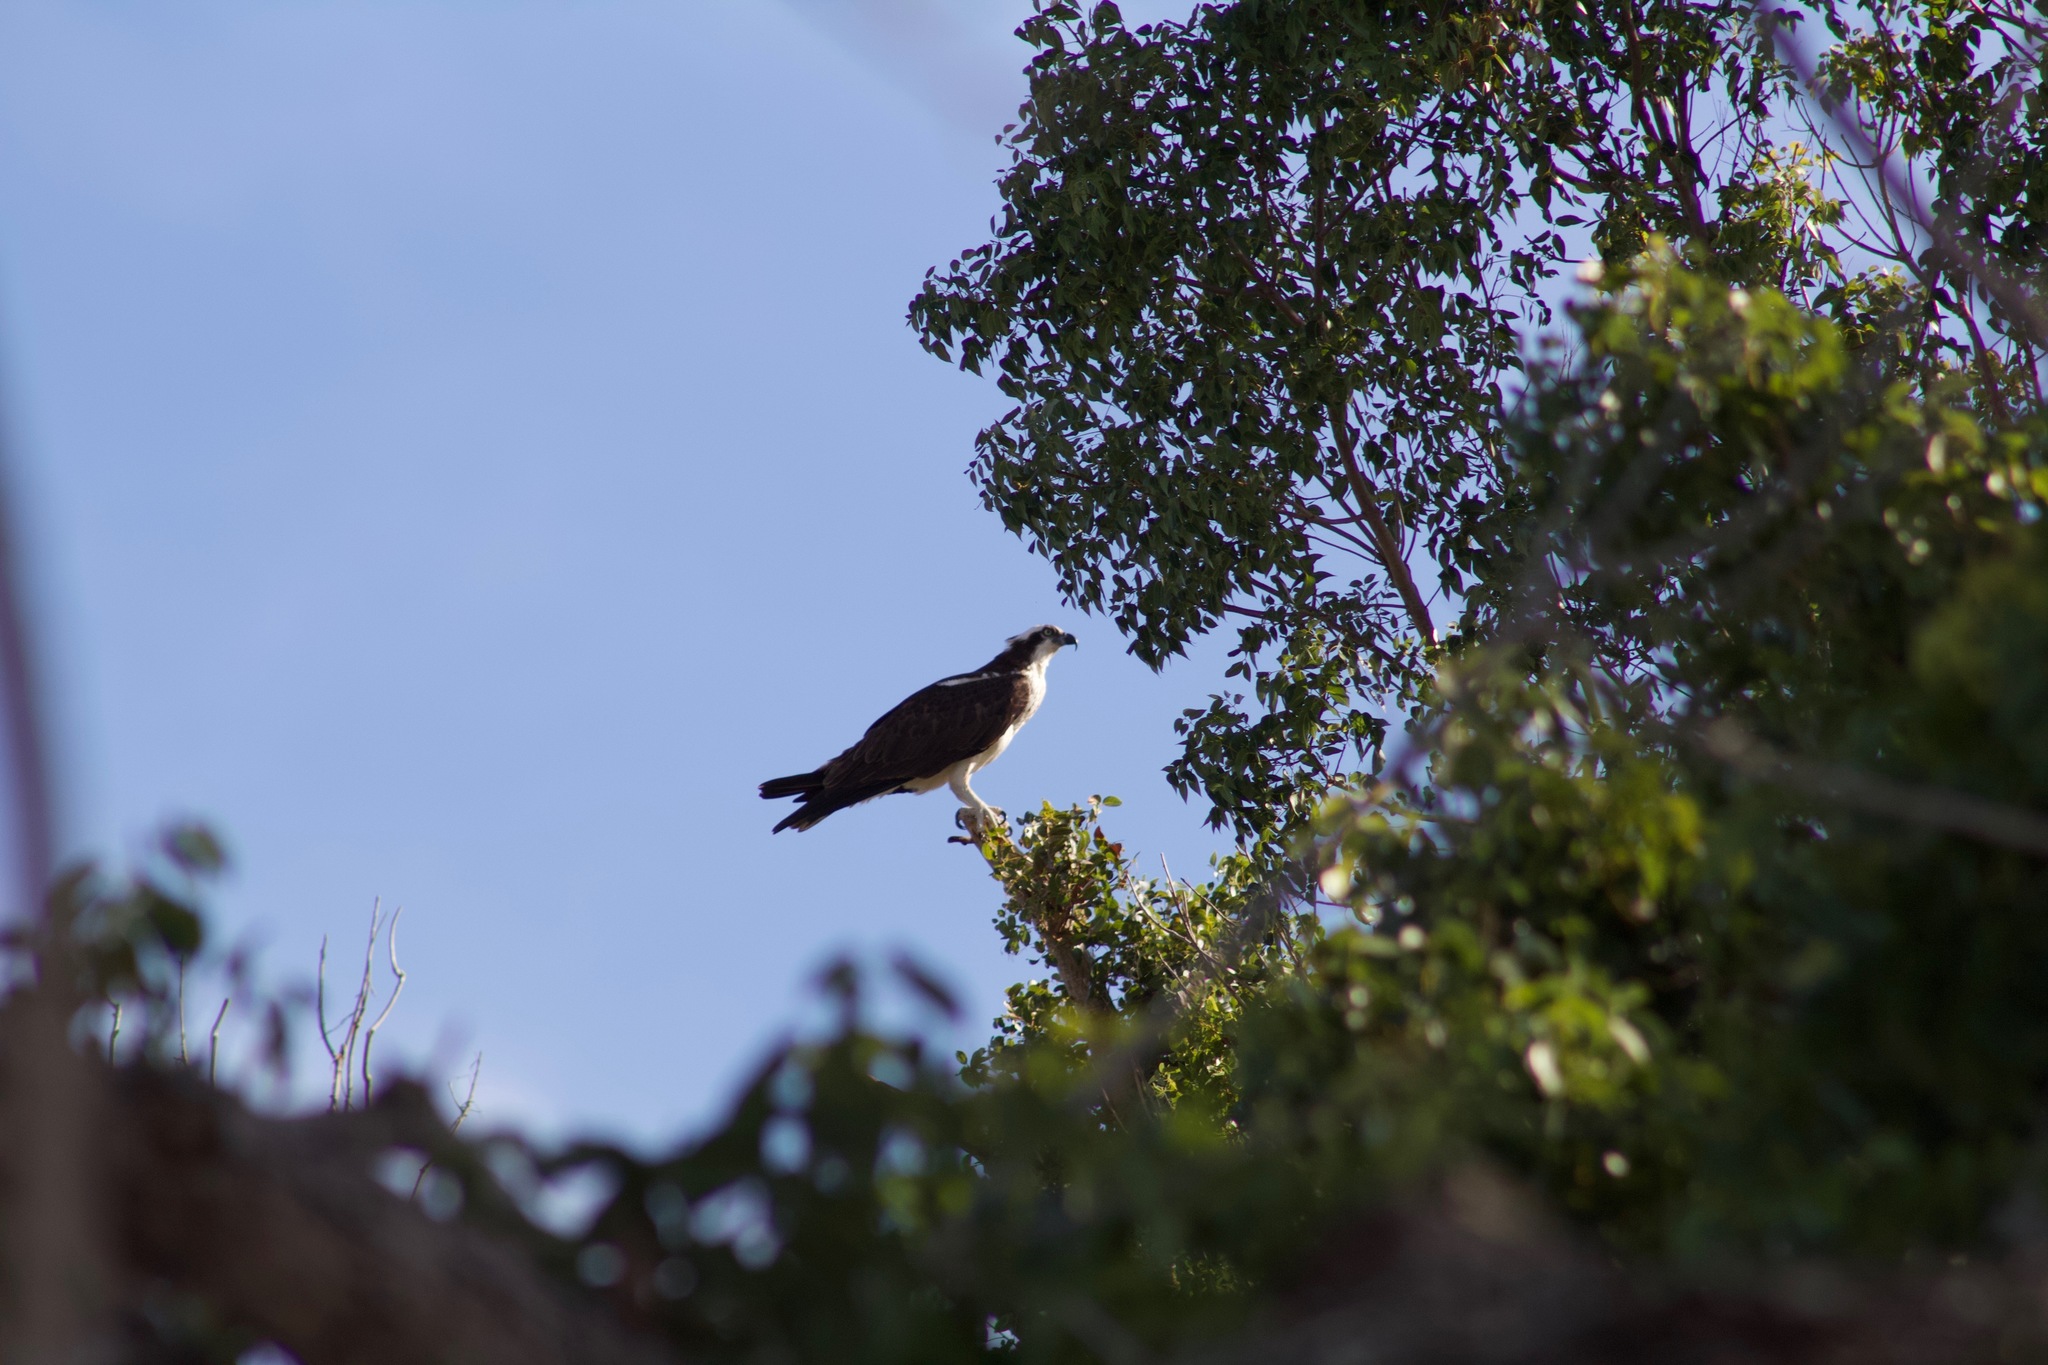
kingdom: Animalia
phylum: Chordata
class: Aves
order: Accipitriformes
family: Pandionidae
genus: Pandion
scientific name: Pandion haliaetus
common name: Osprey
